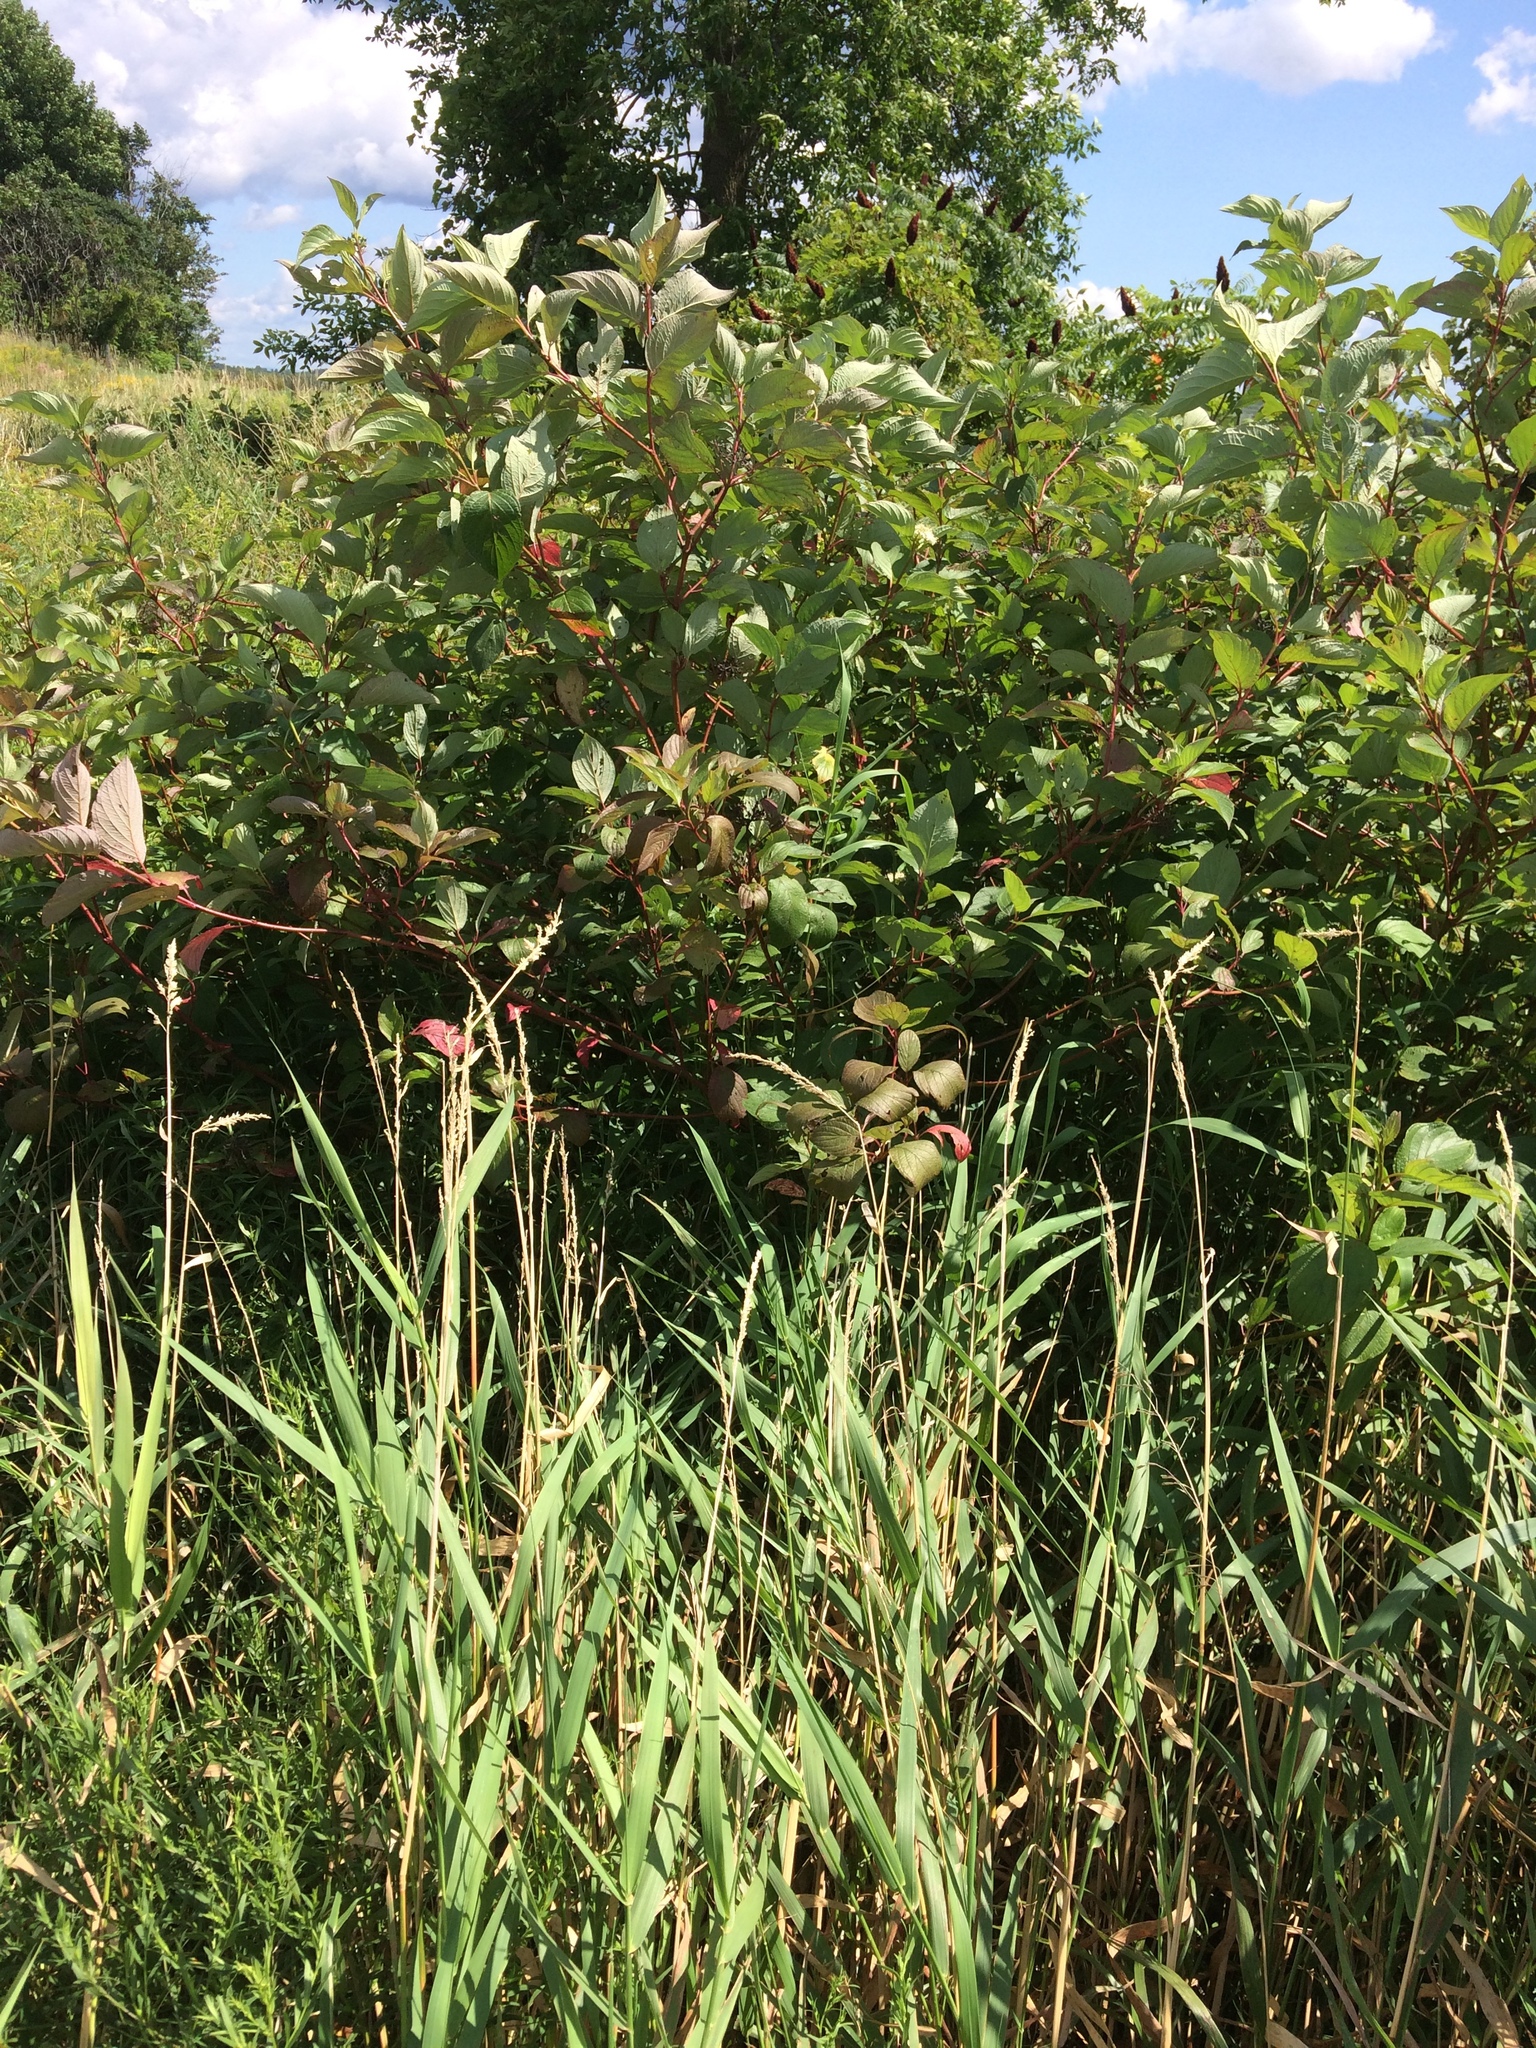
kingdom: Plantae
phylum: Tracheophyta
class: Magnoliopsida
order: Cornales
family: Cornaceae
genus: Cornus
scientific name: Cornus sericea
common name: Red-osier dogwood
